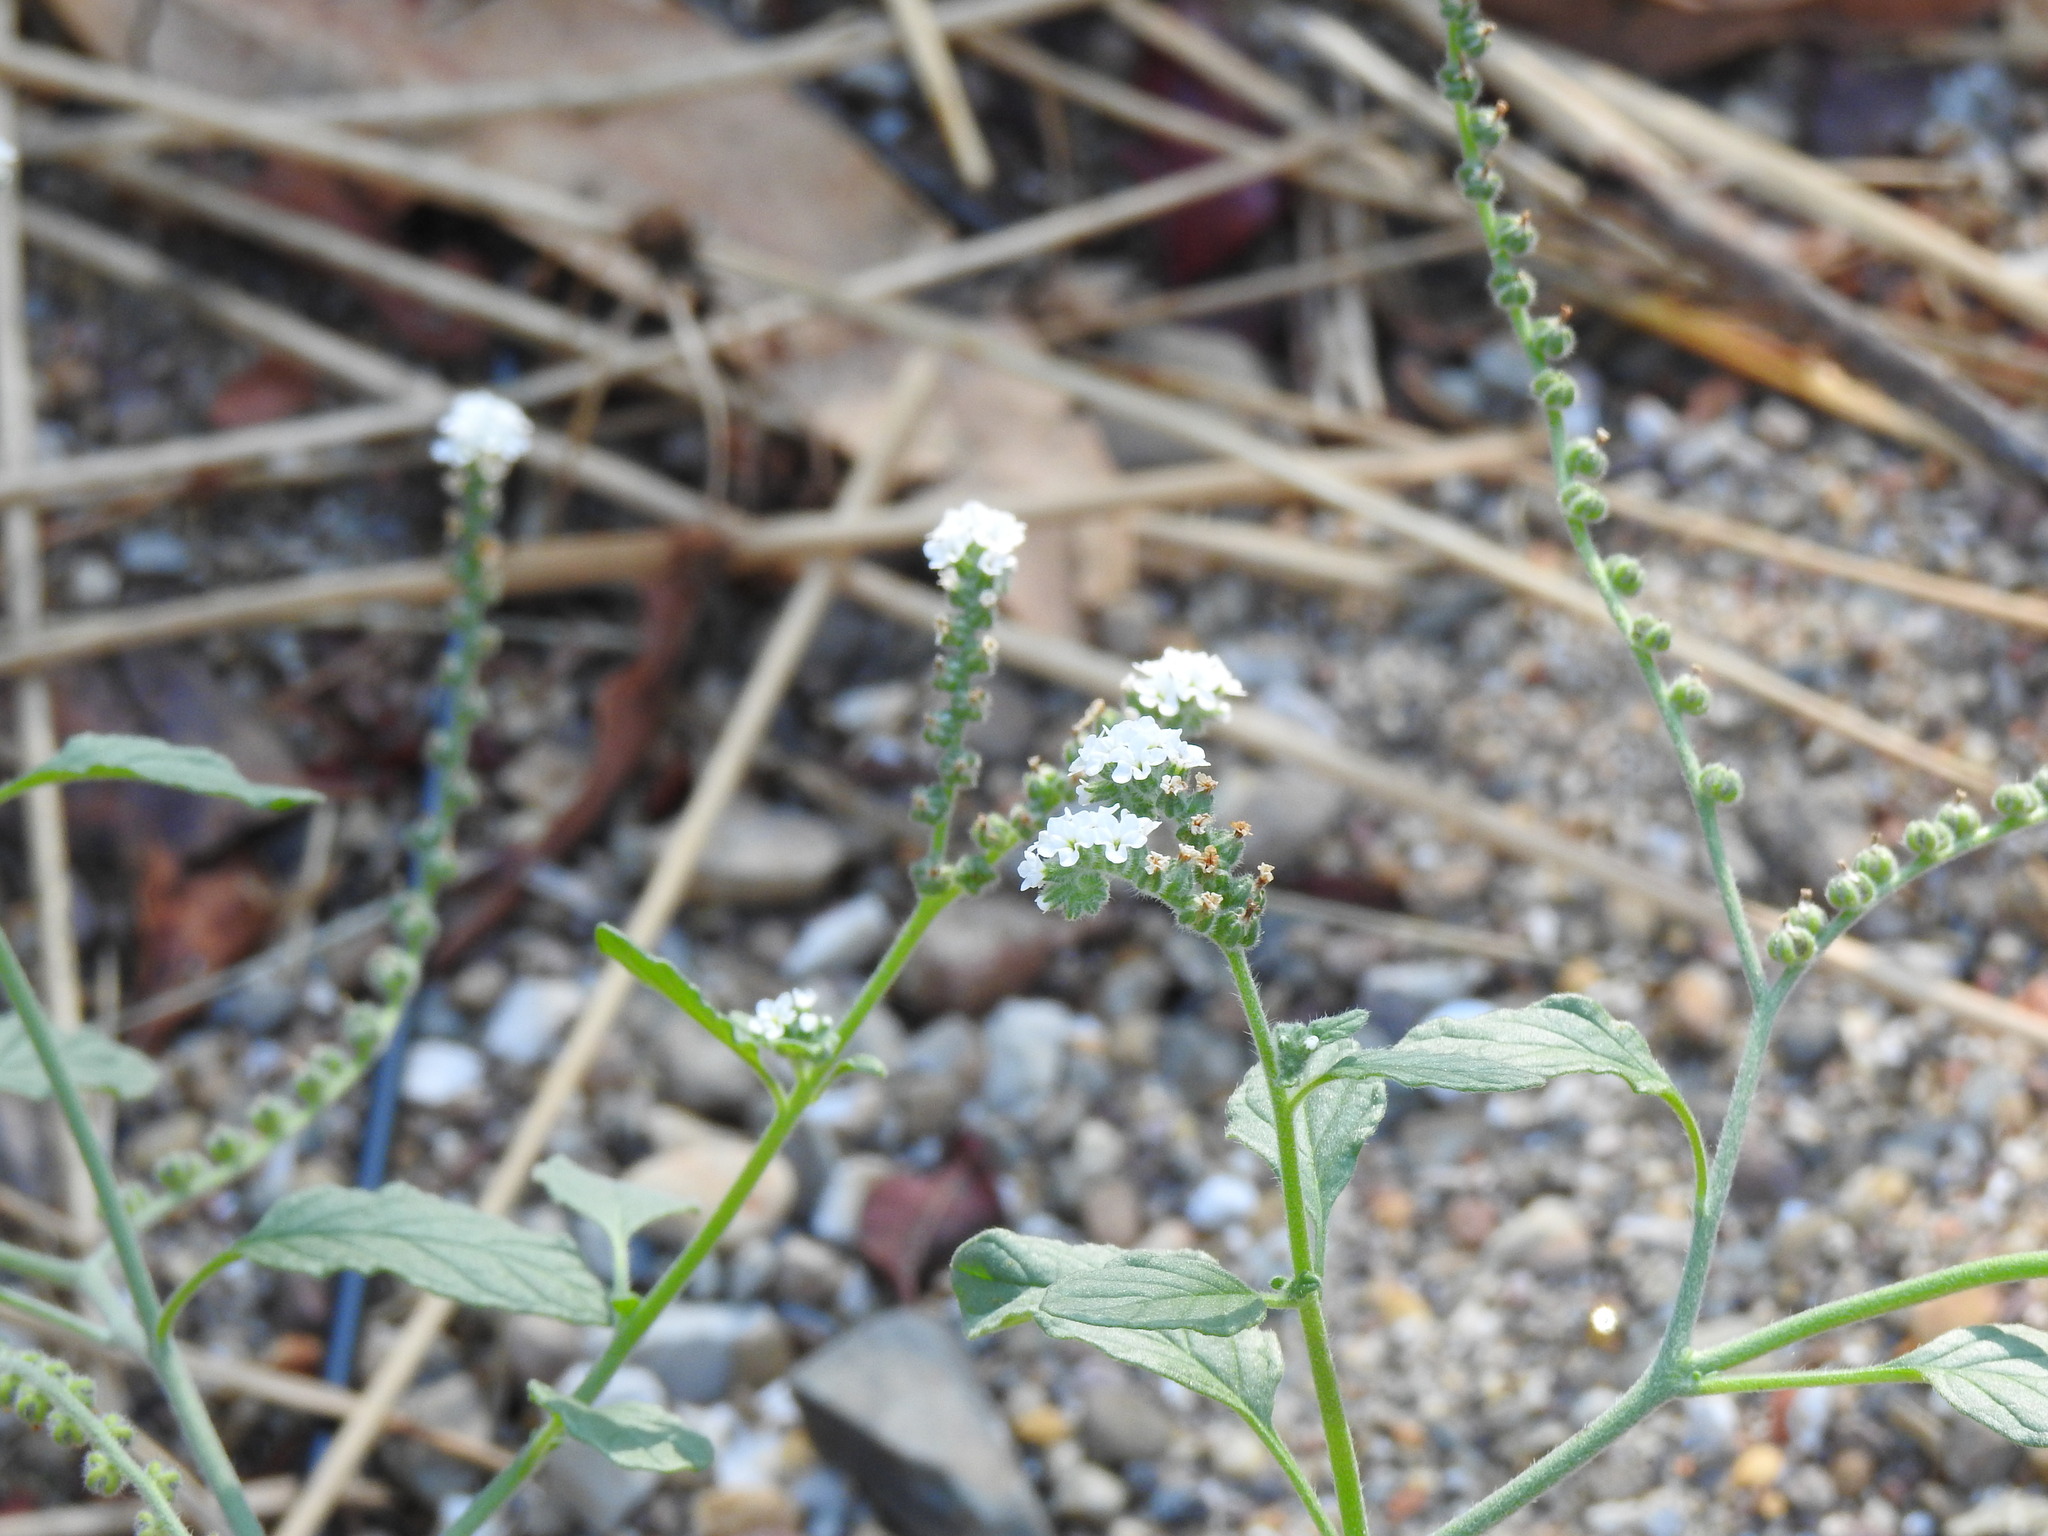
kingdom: Plantae
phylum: Tracheophyta
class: Magnoliopsida
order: Boraginales
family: Heliotropiaceae
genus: Heliotropium
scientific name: Heliotropium europaeum
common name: European heliotrope
